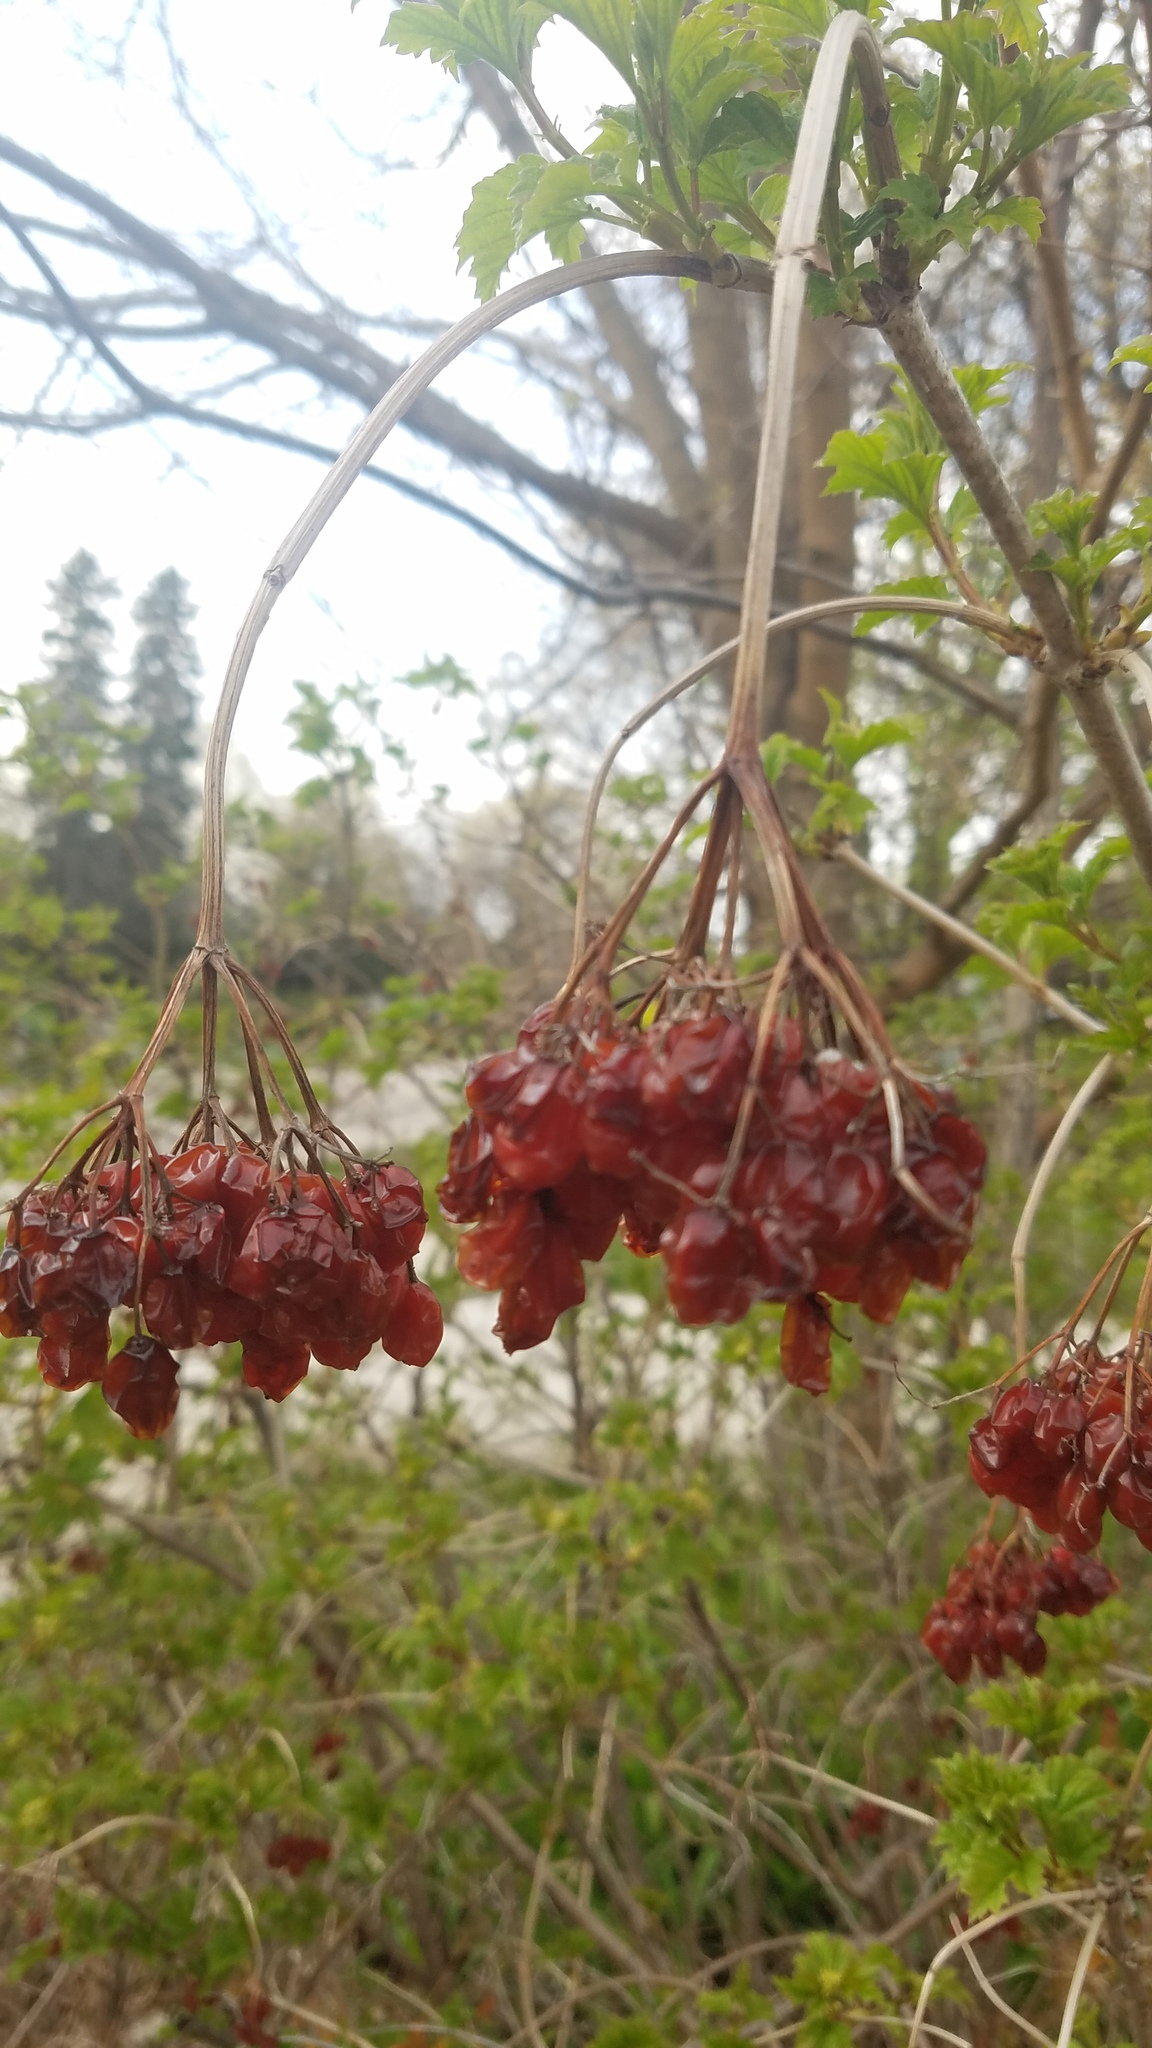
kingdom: Plantae
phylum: Tracheophyta
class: Magnoliopsida
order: Dipsacales
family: Viburnaceae
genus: Viburnum
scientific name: Viburnum opulus
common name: Guelder-rose
